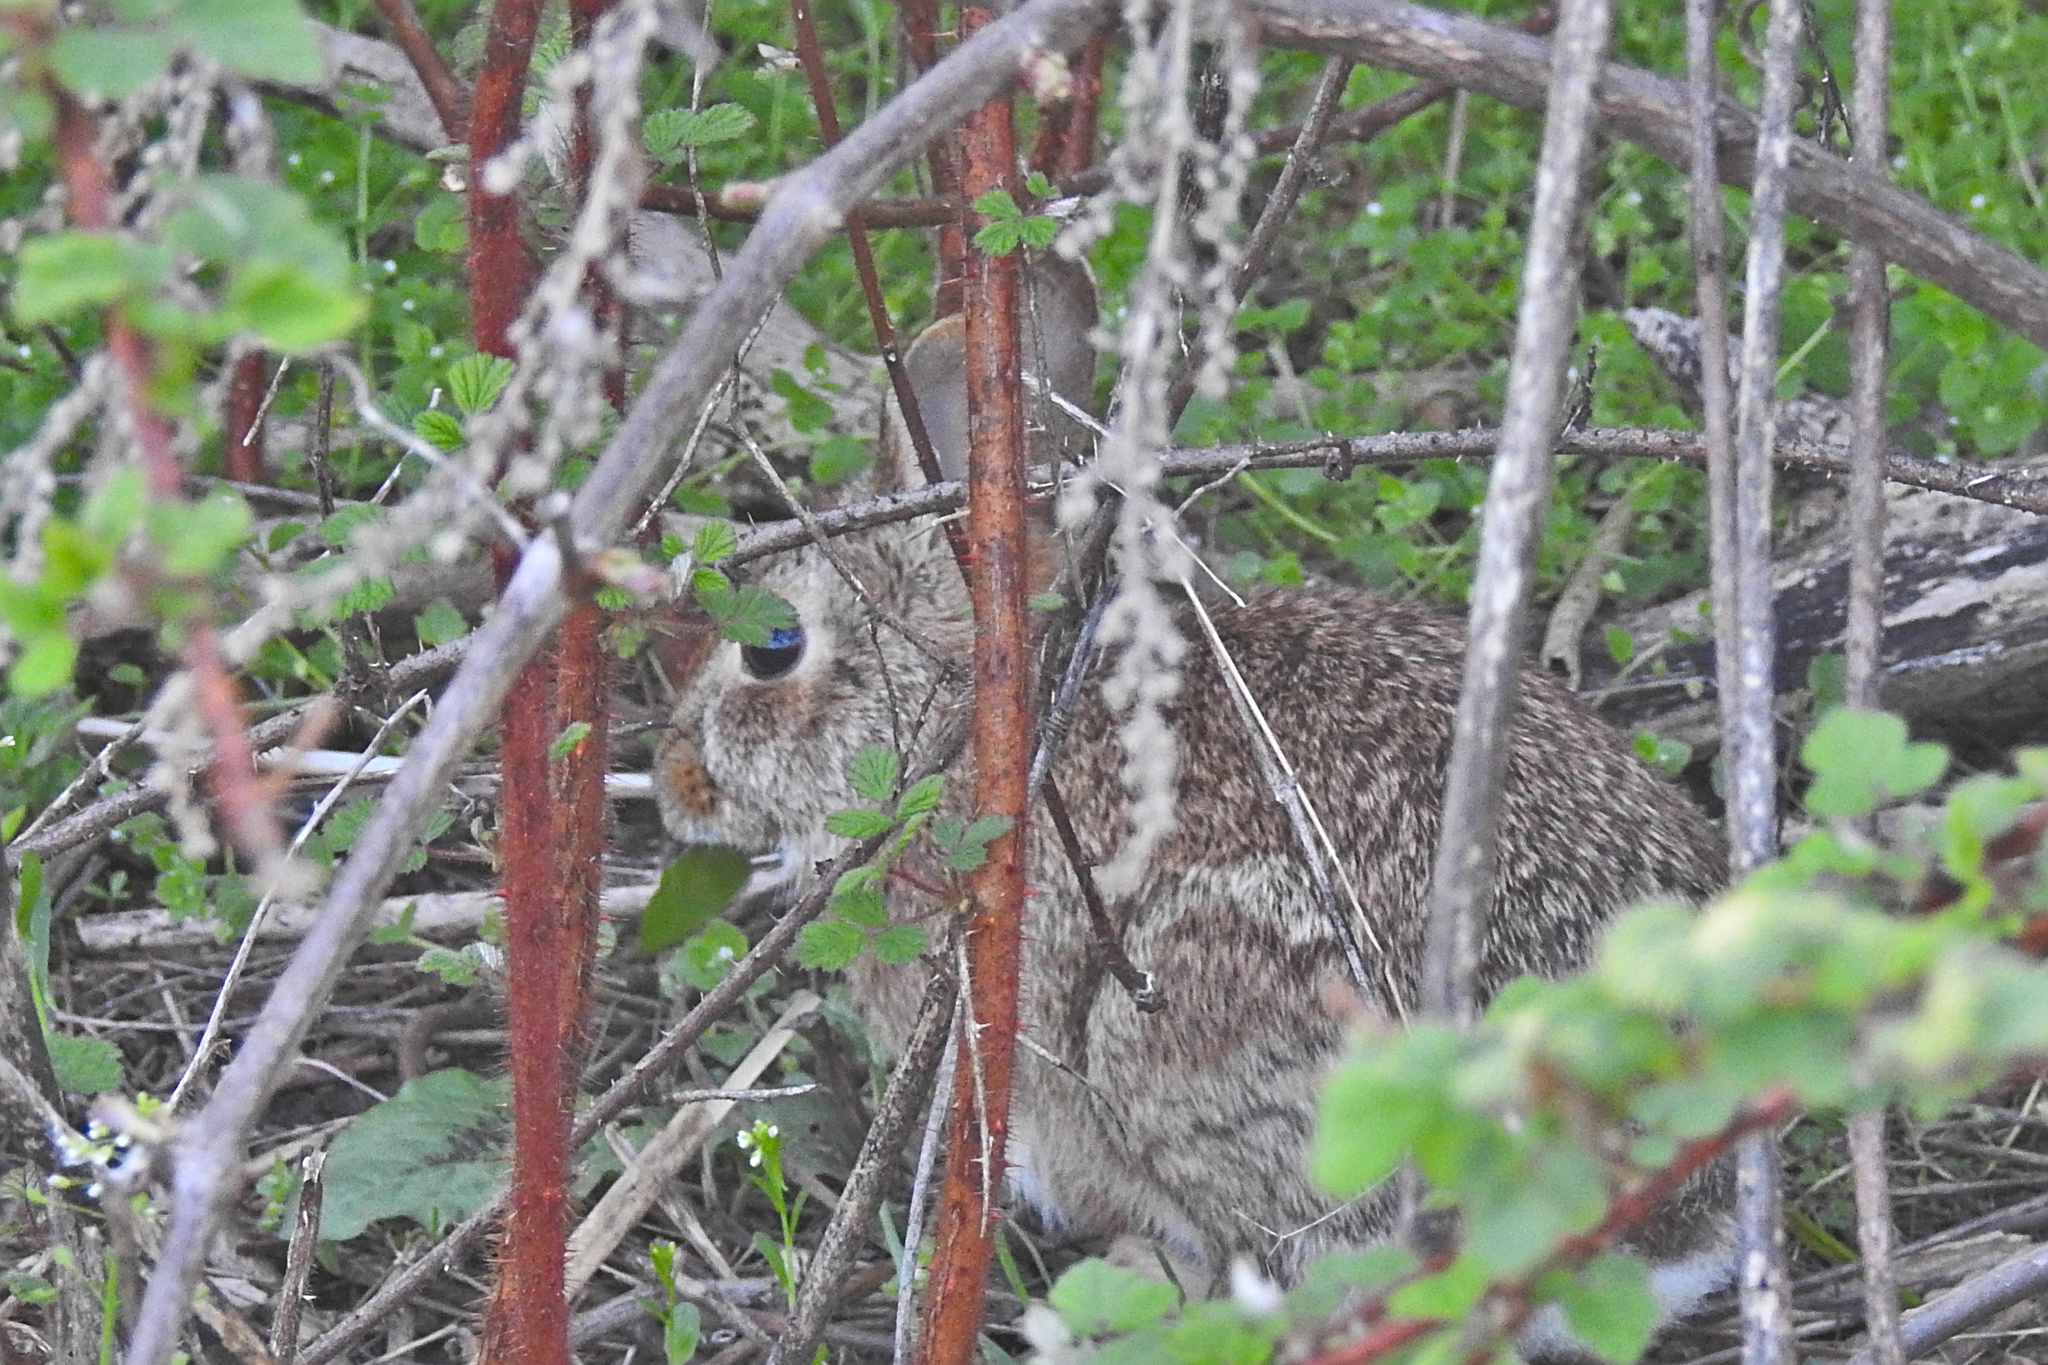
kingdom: Animalia
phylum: Chordata
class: Mammalia
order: Lagomorpha
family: Leporidae
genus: Sylvilagus
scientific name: Sylvilagus floridanus
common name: Eastern cottontail
